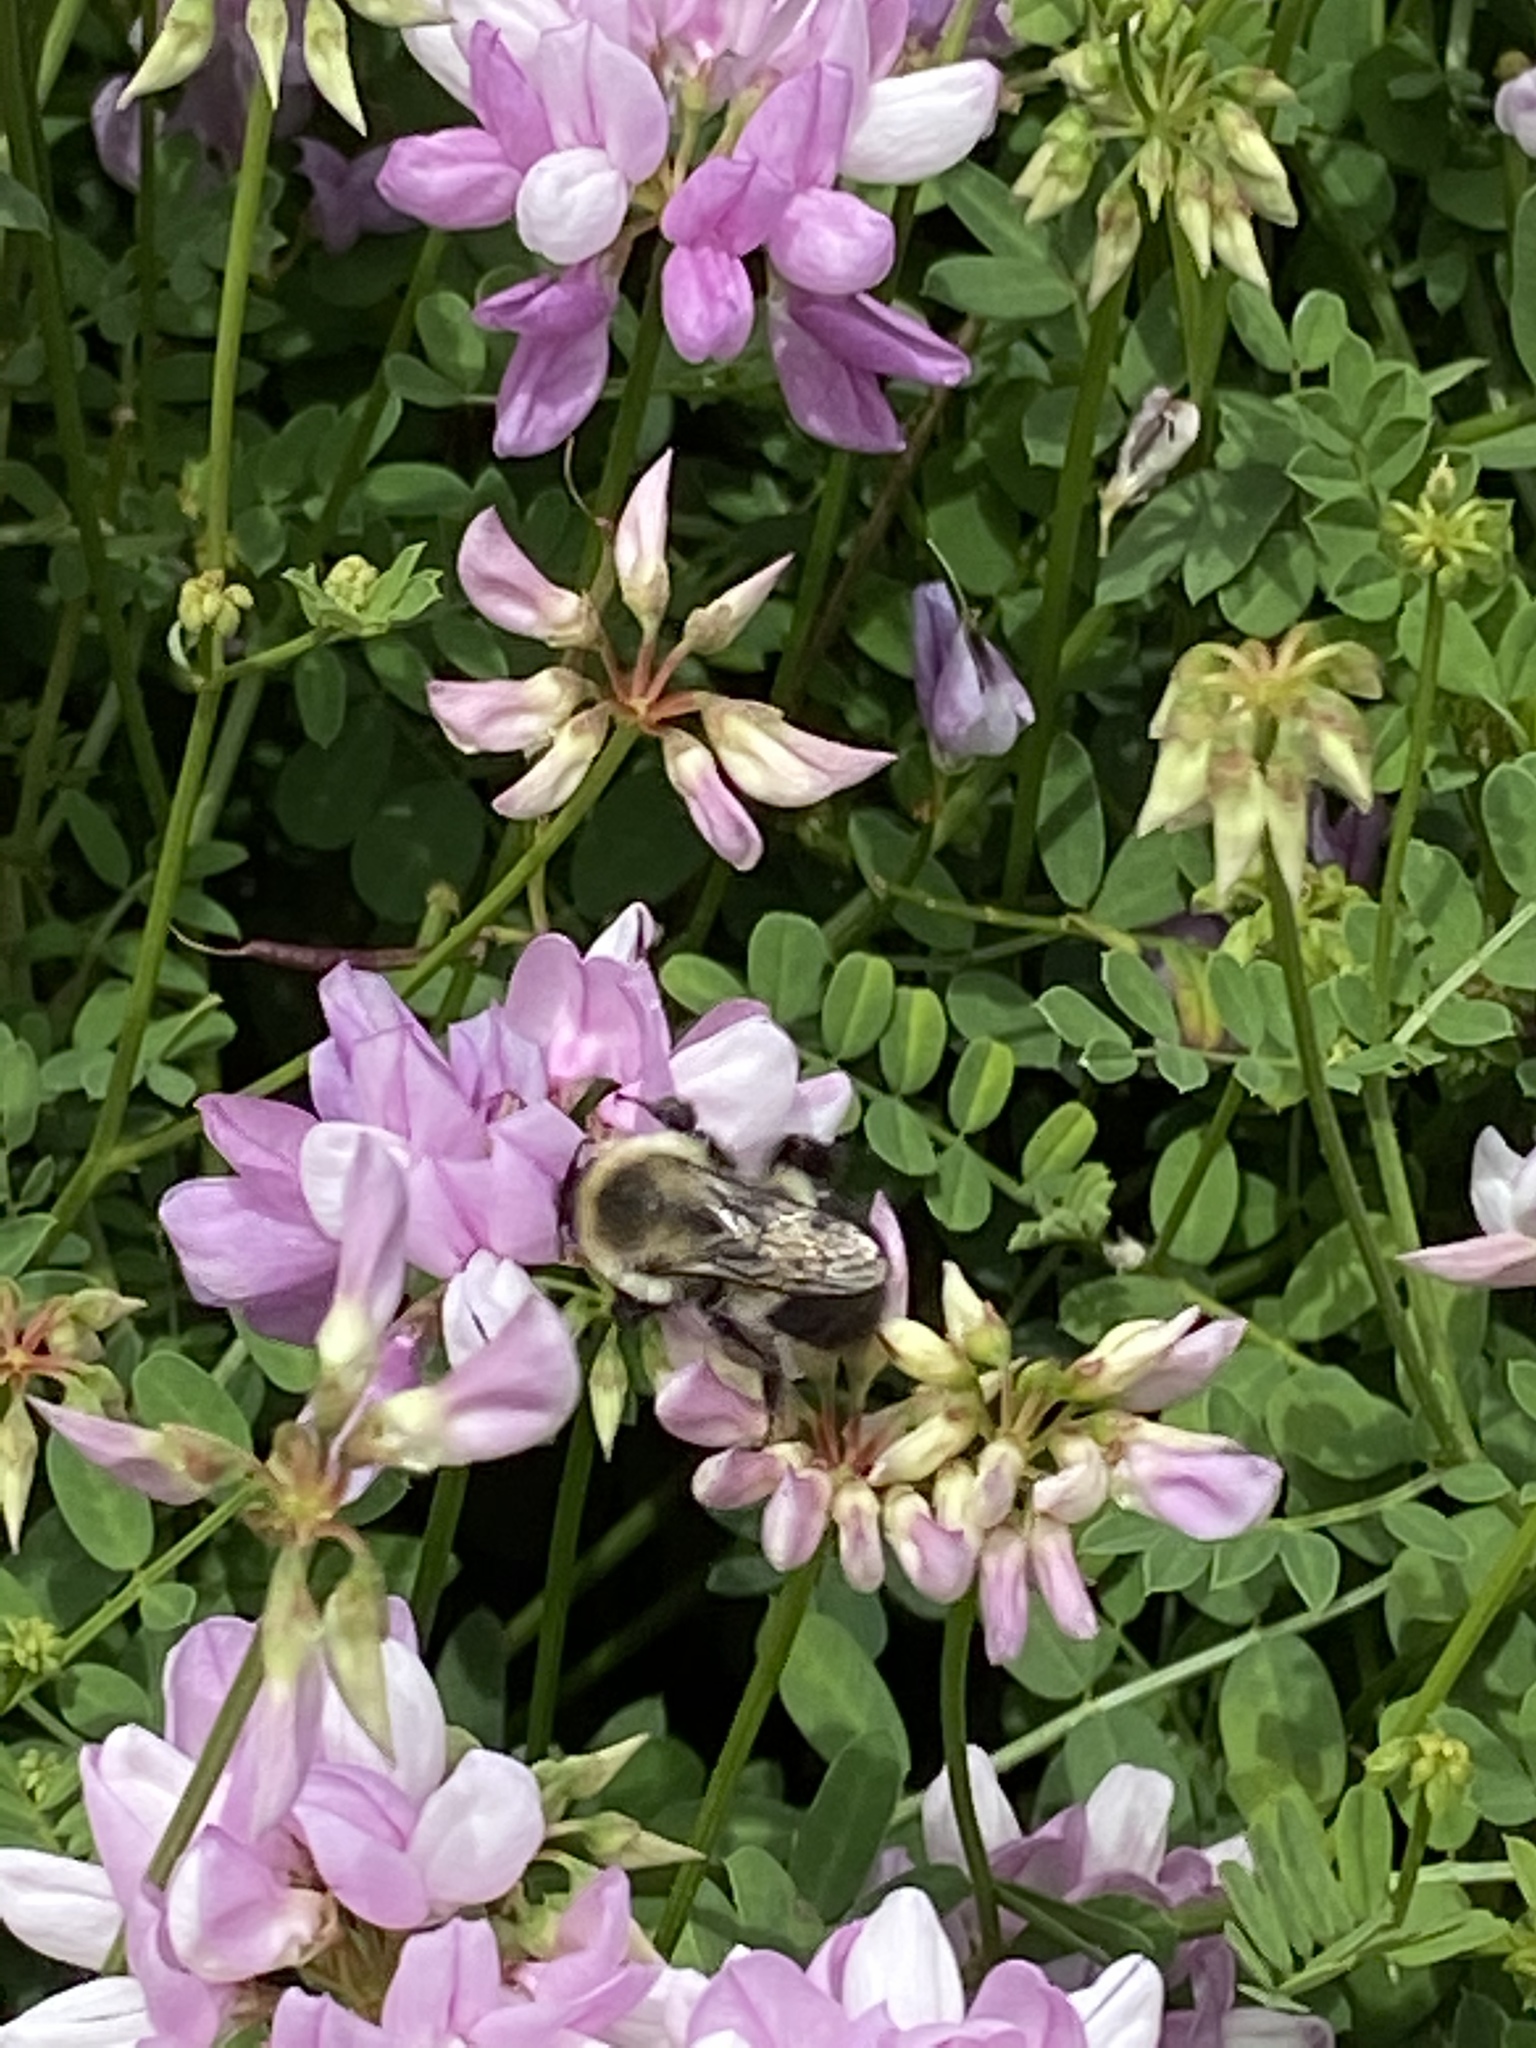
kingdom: Animalia
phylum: Arthropoda
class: Insecta
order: Hymenoptera
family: Apidae
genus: Bombus
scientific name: Bombus impatiens
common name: Common eastern bumble bee
